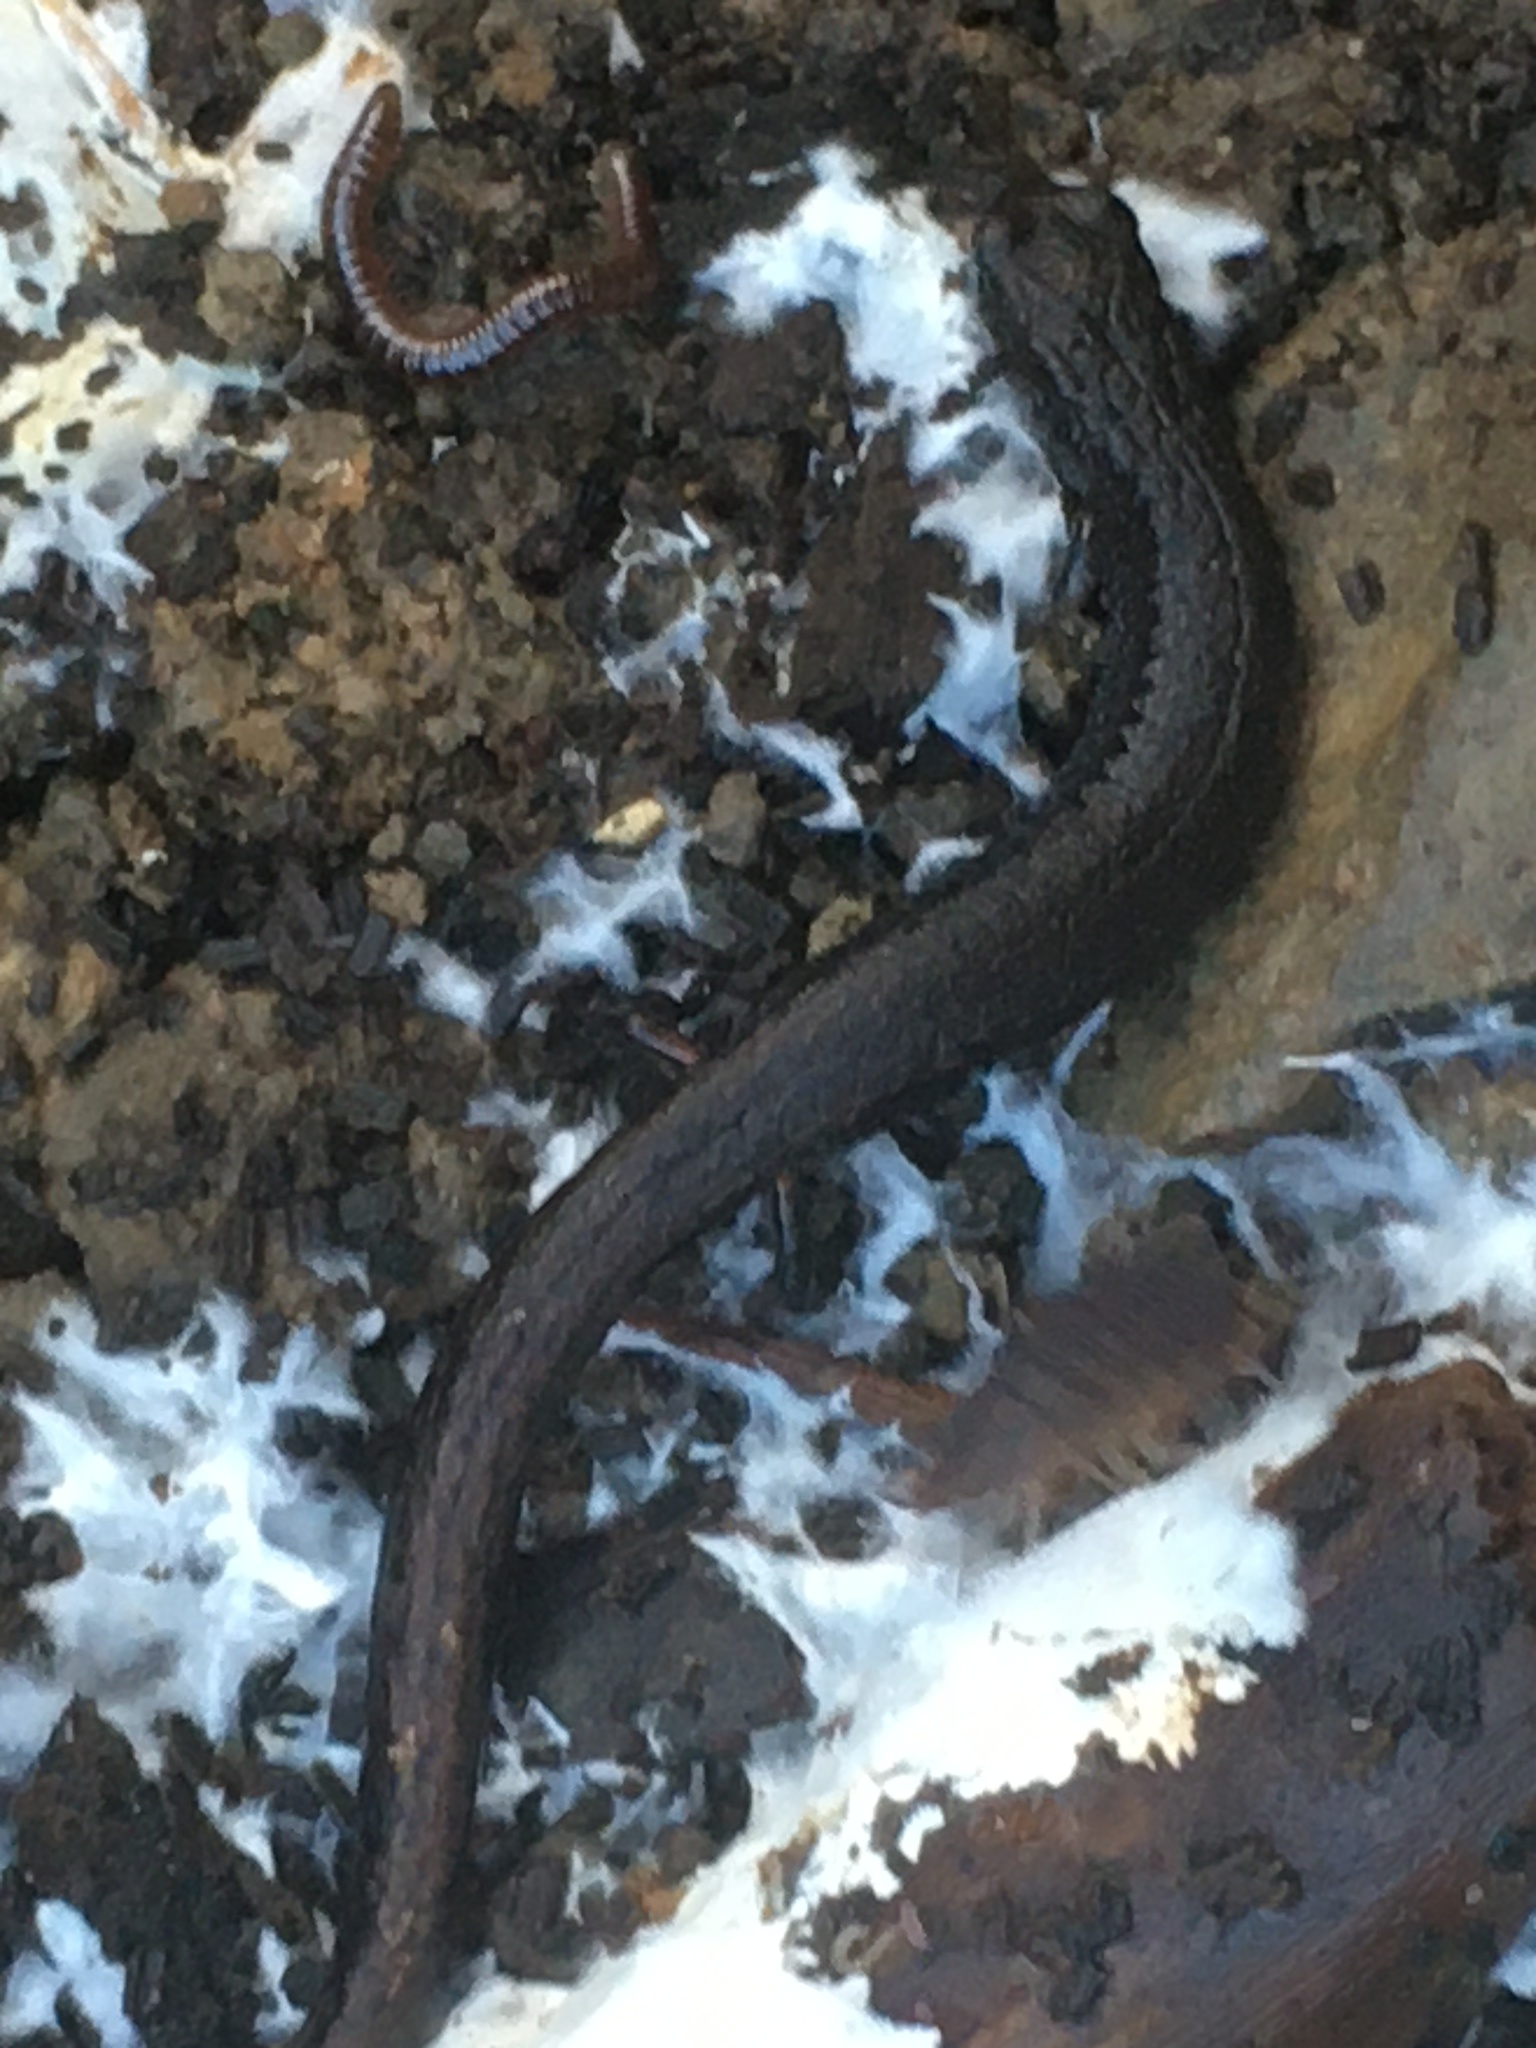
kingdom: Animalia
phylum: Chordata
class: Amphibia
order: Caudata
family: Plethodontidae
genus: Batrachoseps
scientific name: Batrachoseps attenuatus
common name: California slender salamander
